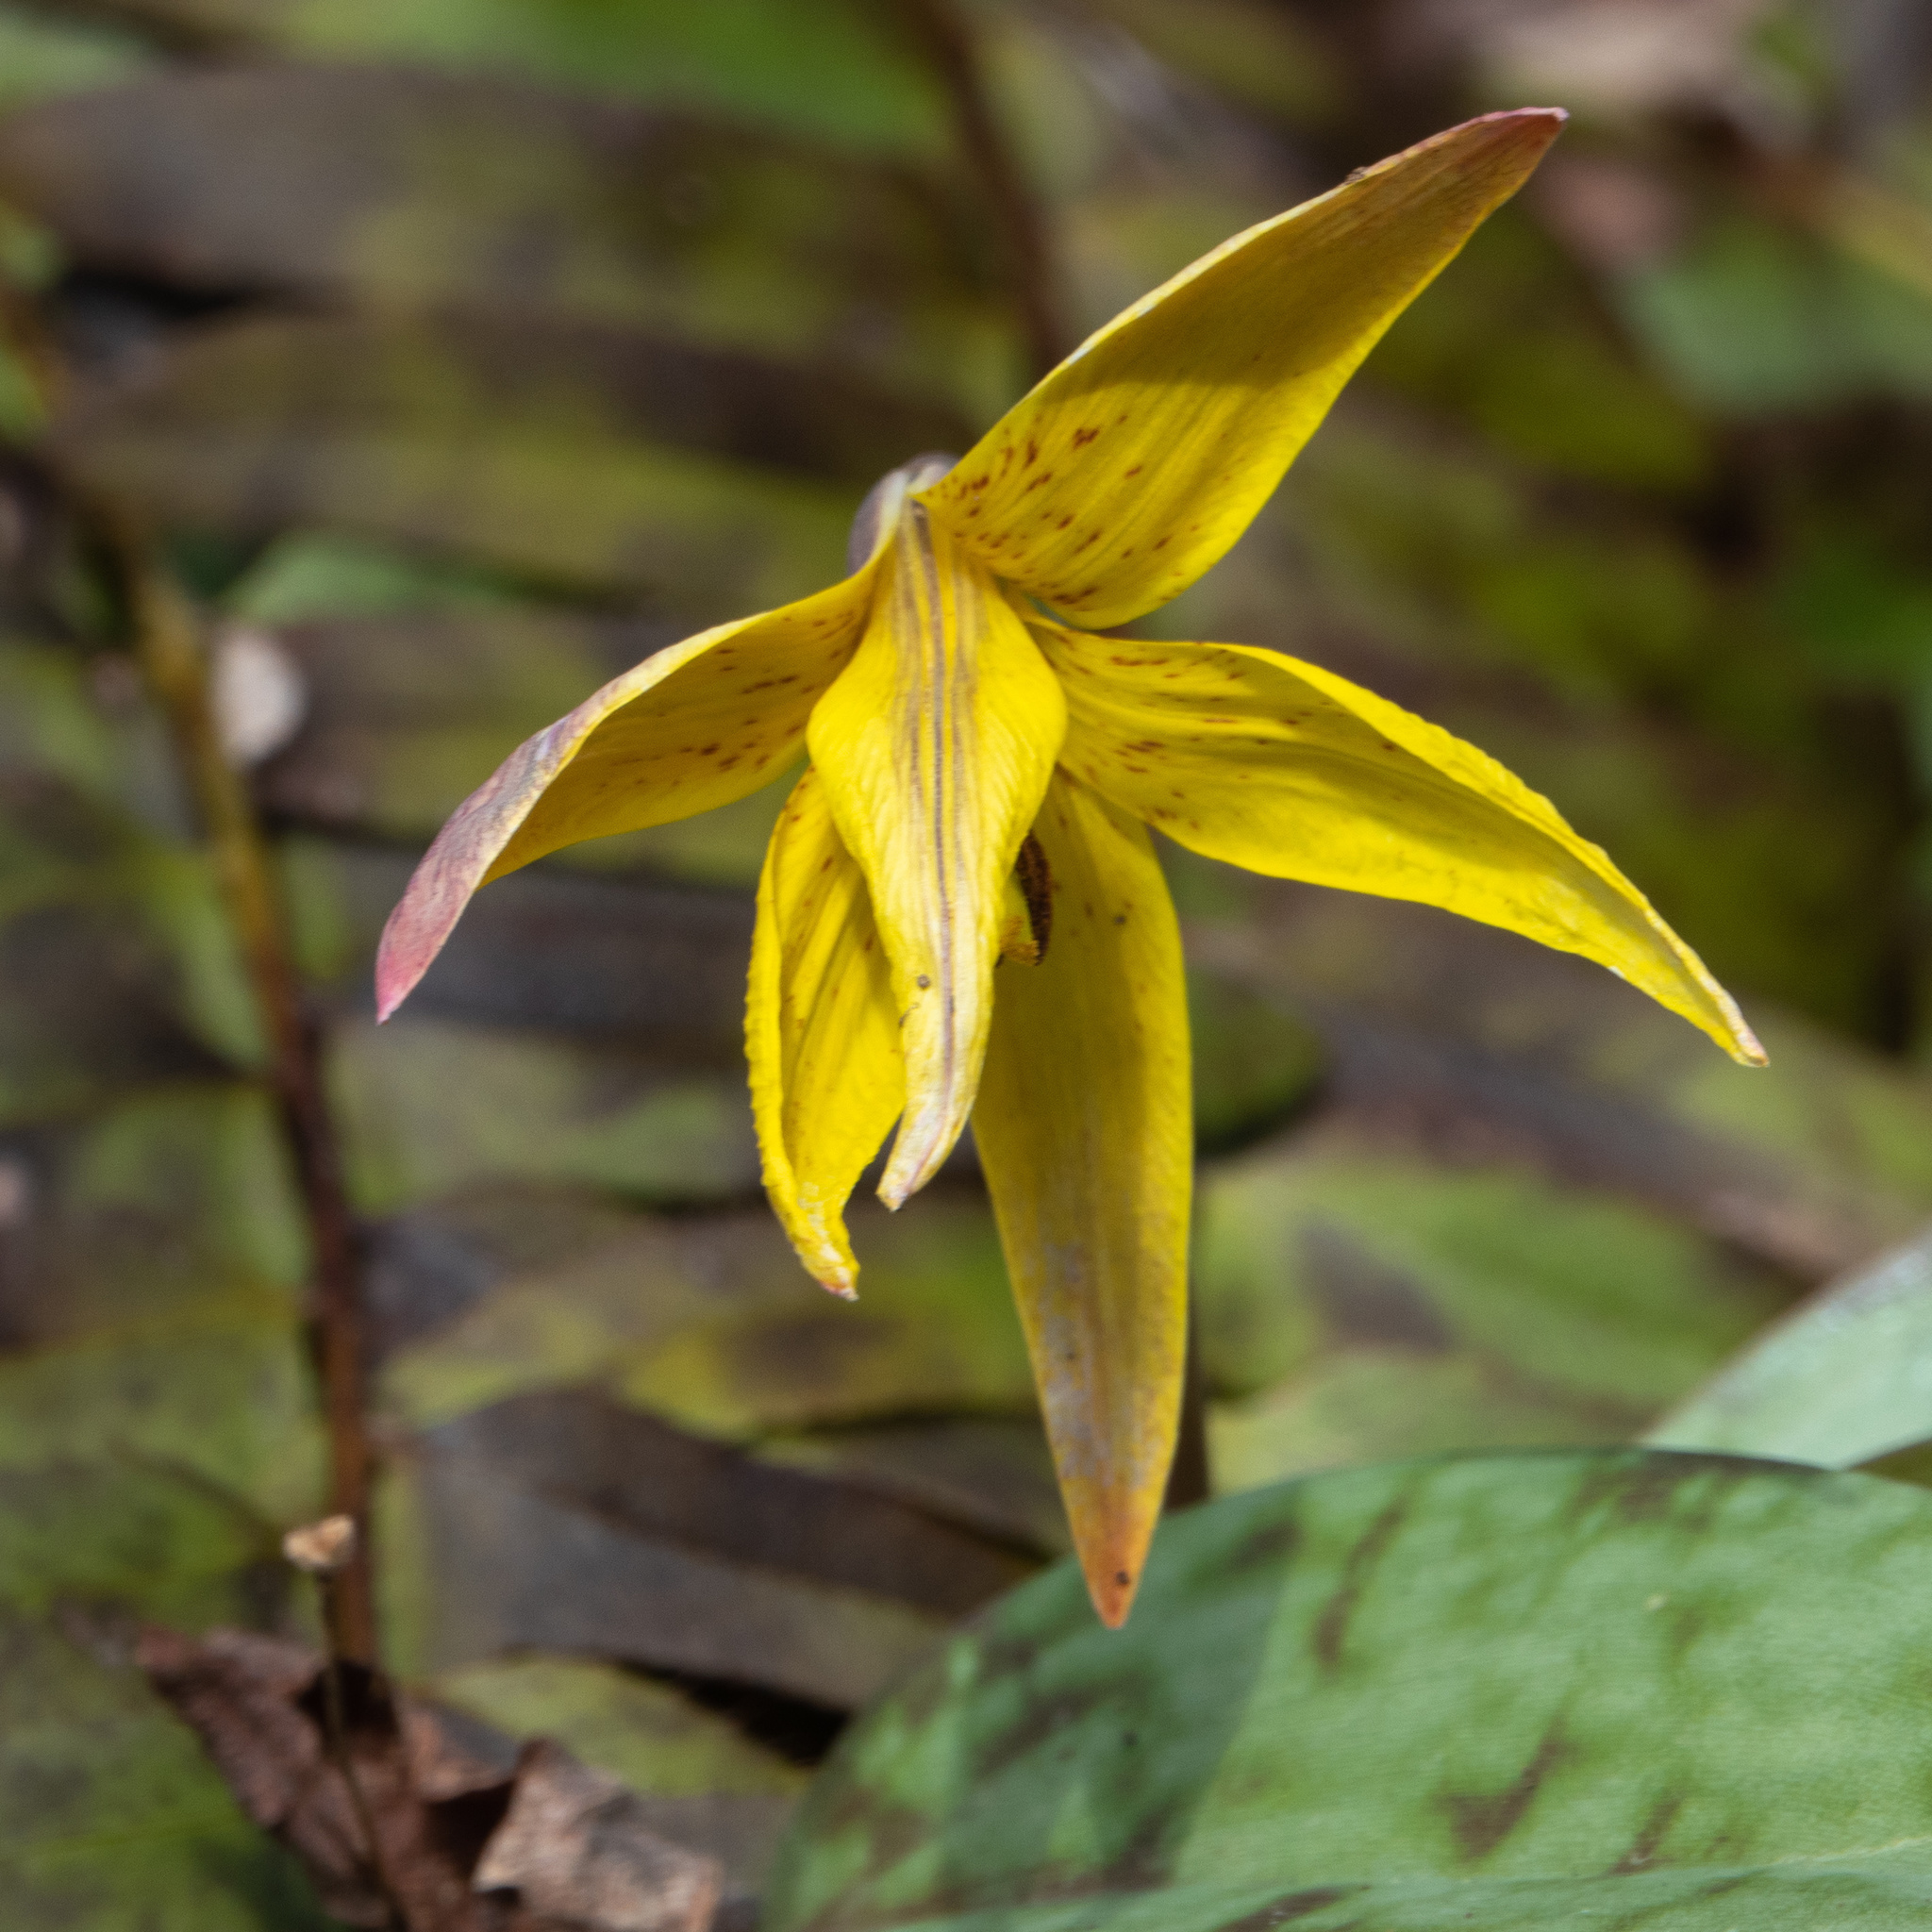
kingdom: Plantae
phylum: Tracheophyta
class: Liliopsida
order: Liliales
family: Liliaceae
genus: Erythronium
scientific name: Erythronium americanum
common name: Yellow adder's-tongue
